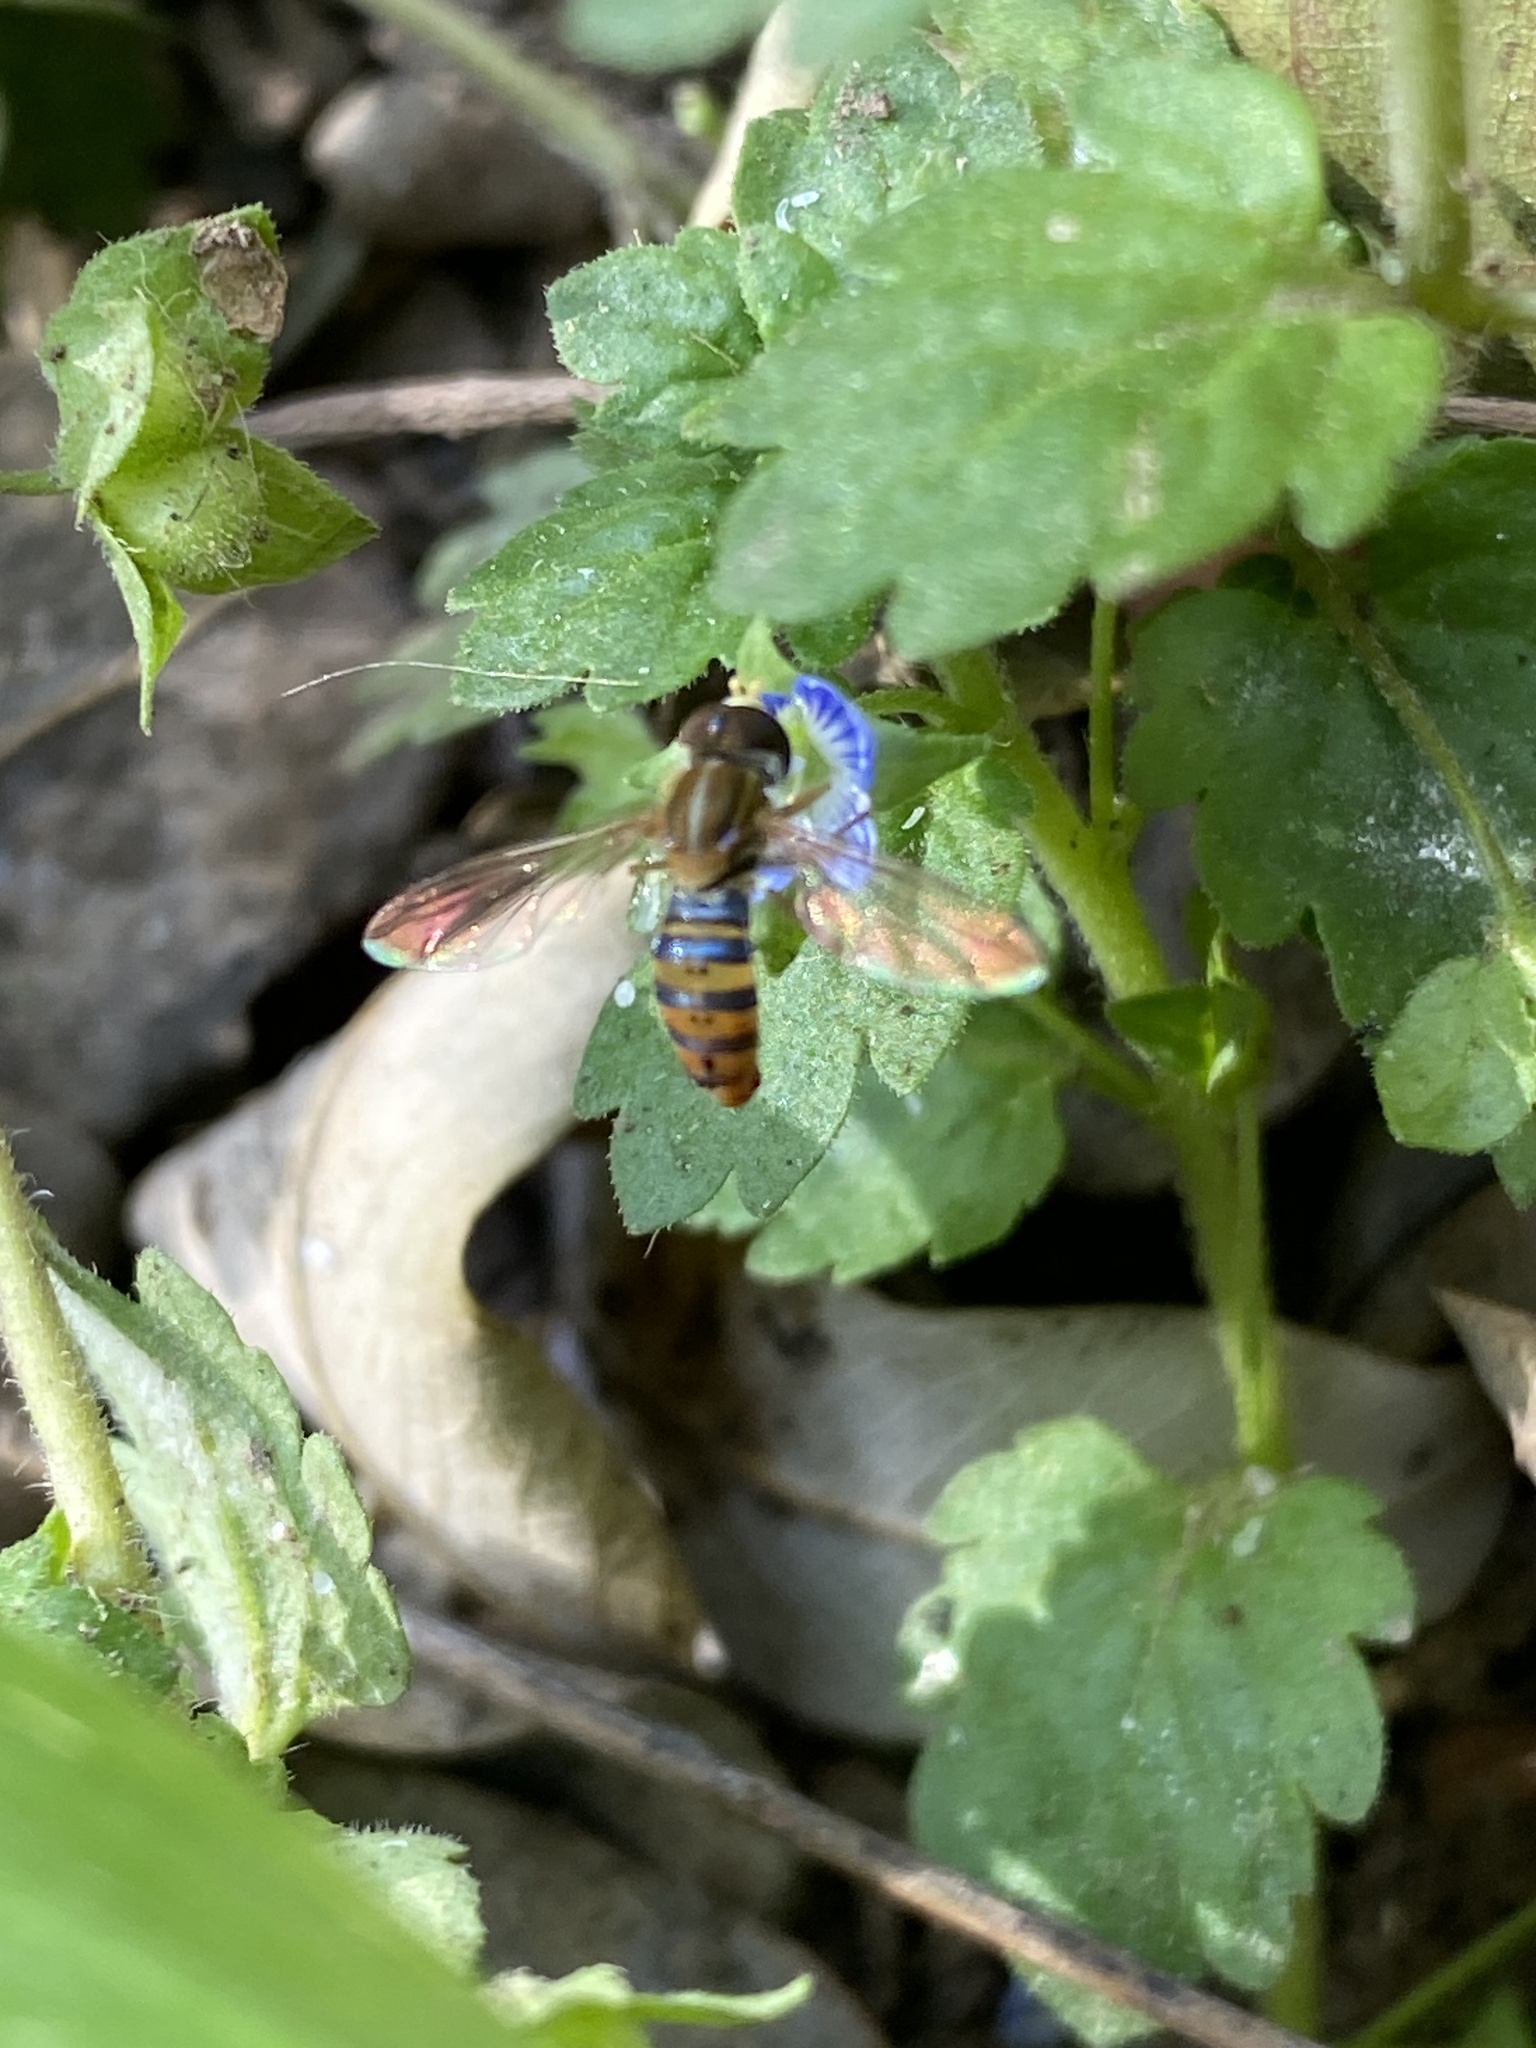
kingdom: Animalia
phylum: Arthropoda
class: Insecta
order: Diptera
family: Syrphidae
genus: Toxomerus
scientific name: Toxomerus
